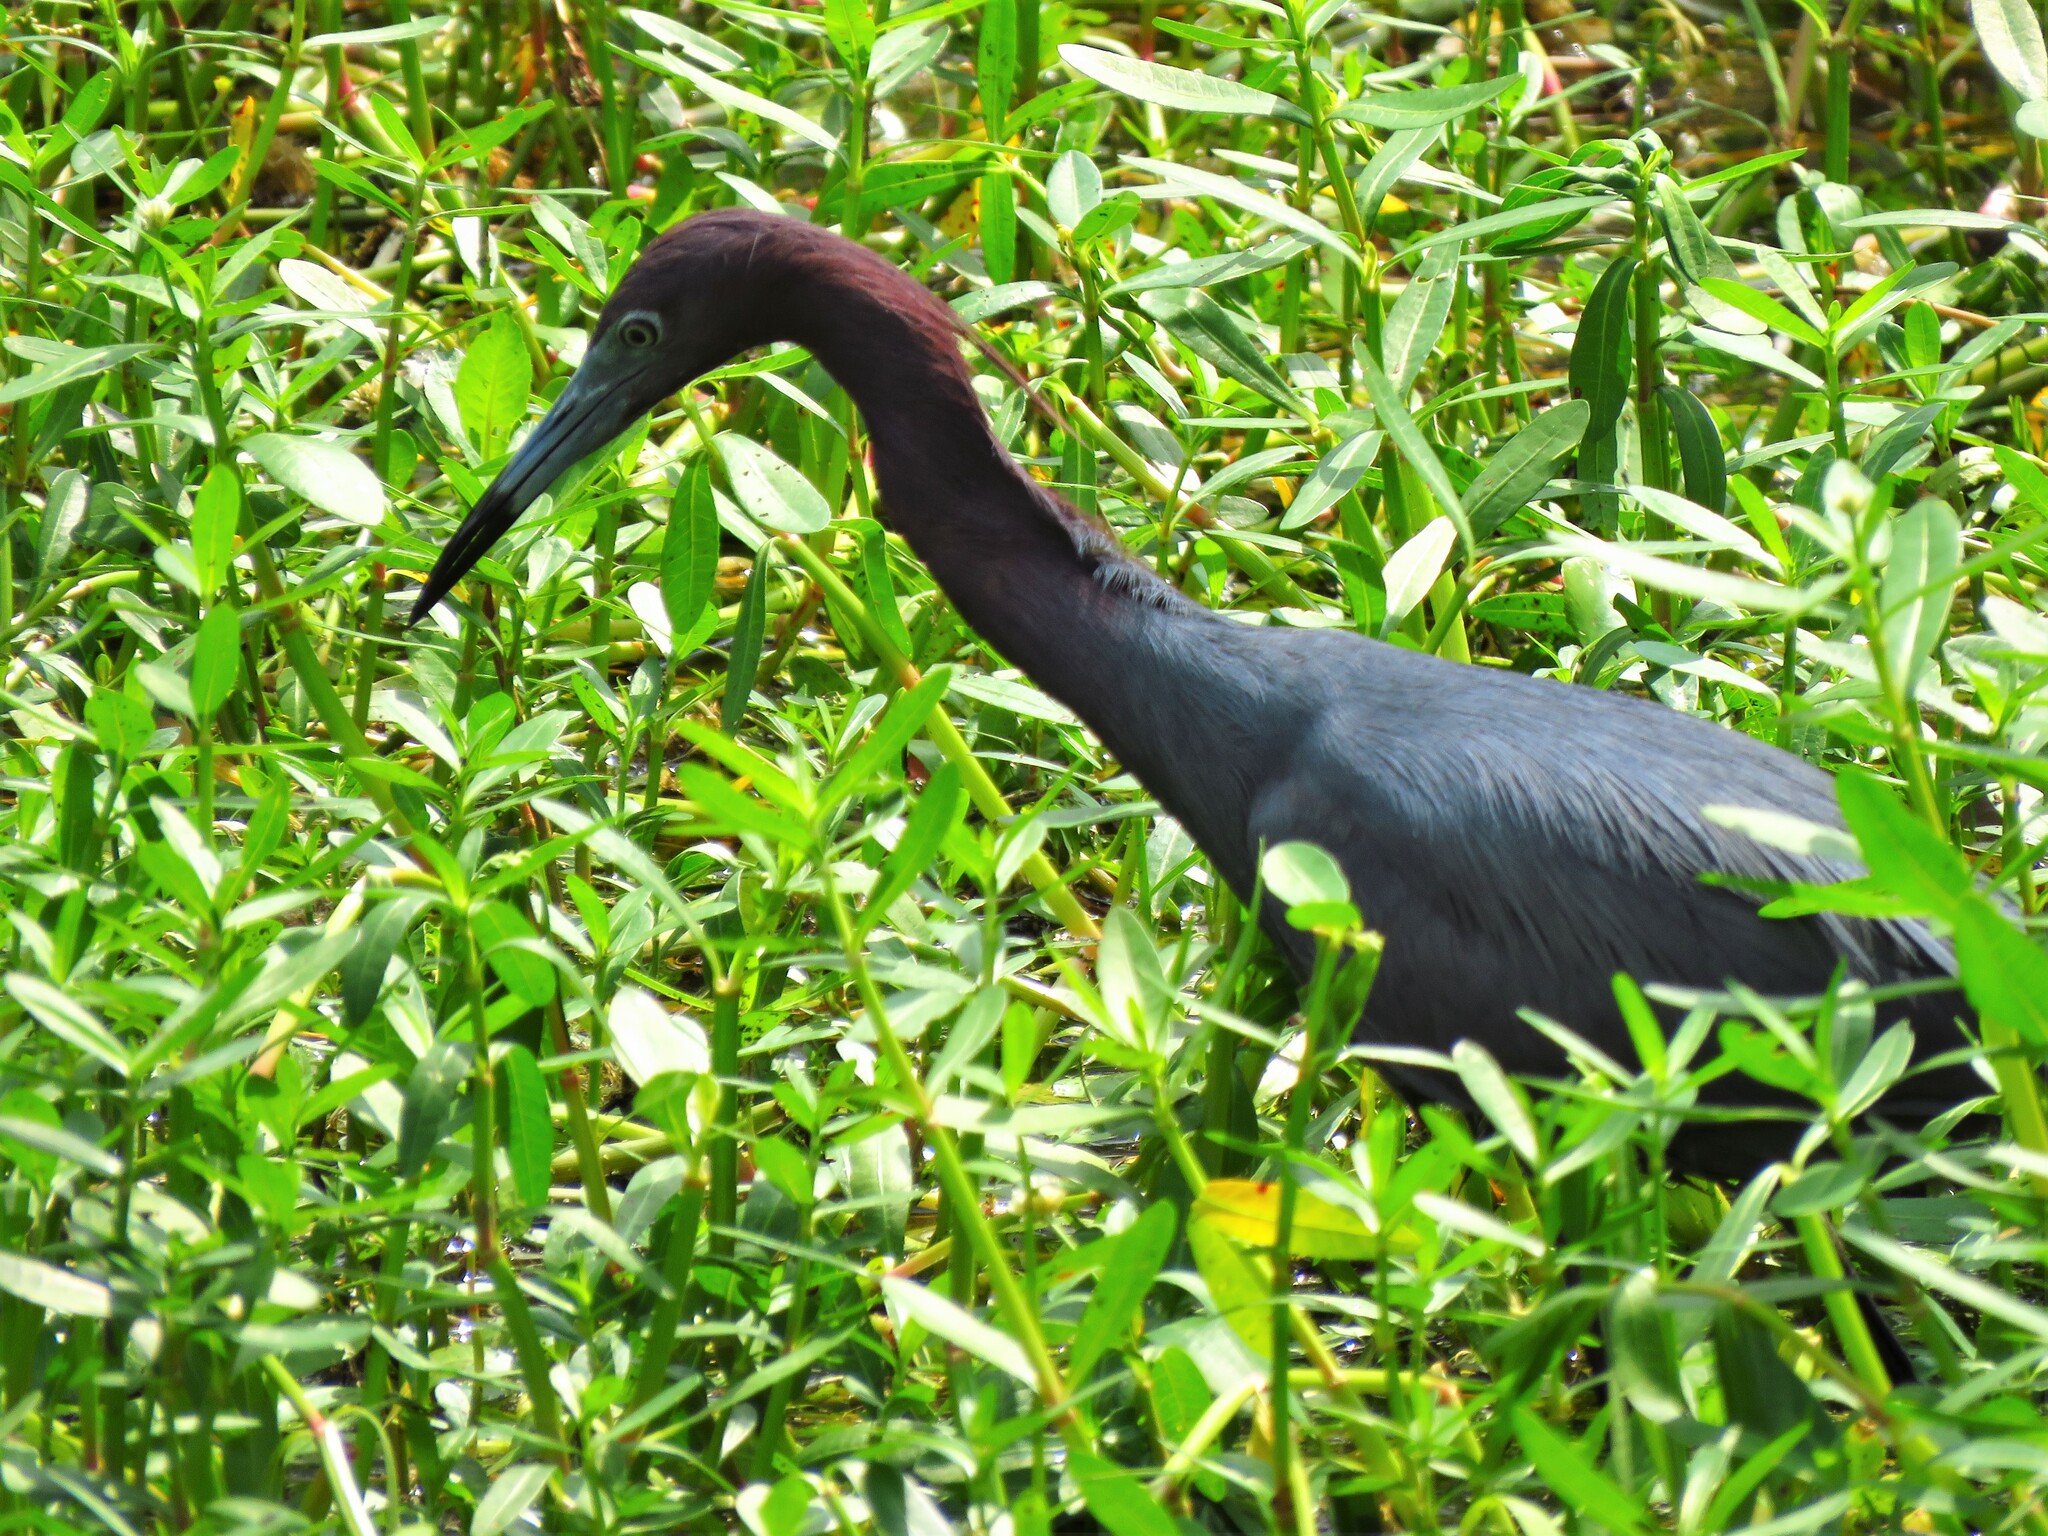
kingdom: Animalia
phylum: Chordata
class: Aves
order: Pelecaniformes
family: Ardeidae
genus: Egretta
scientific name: Egretta caerulea
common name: Little blue heron
